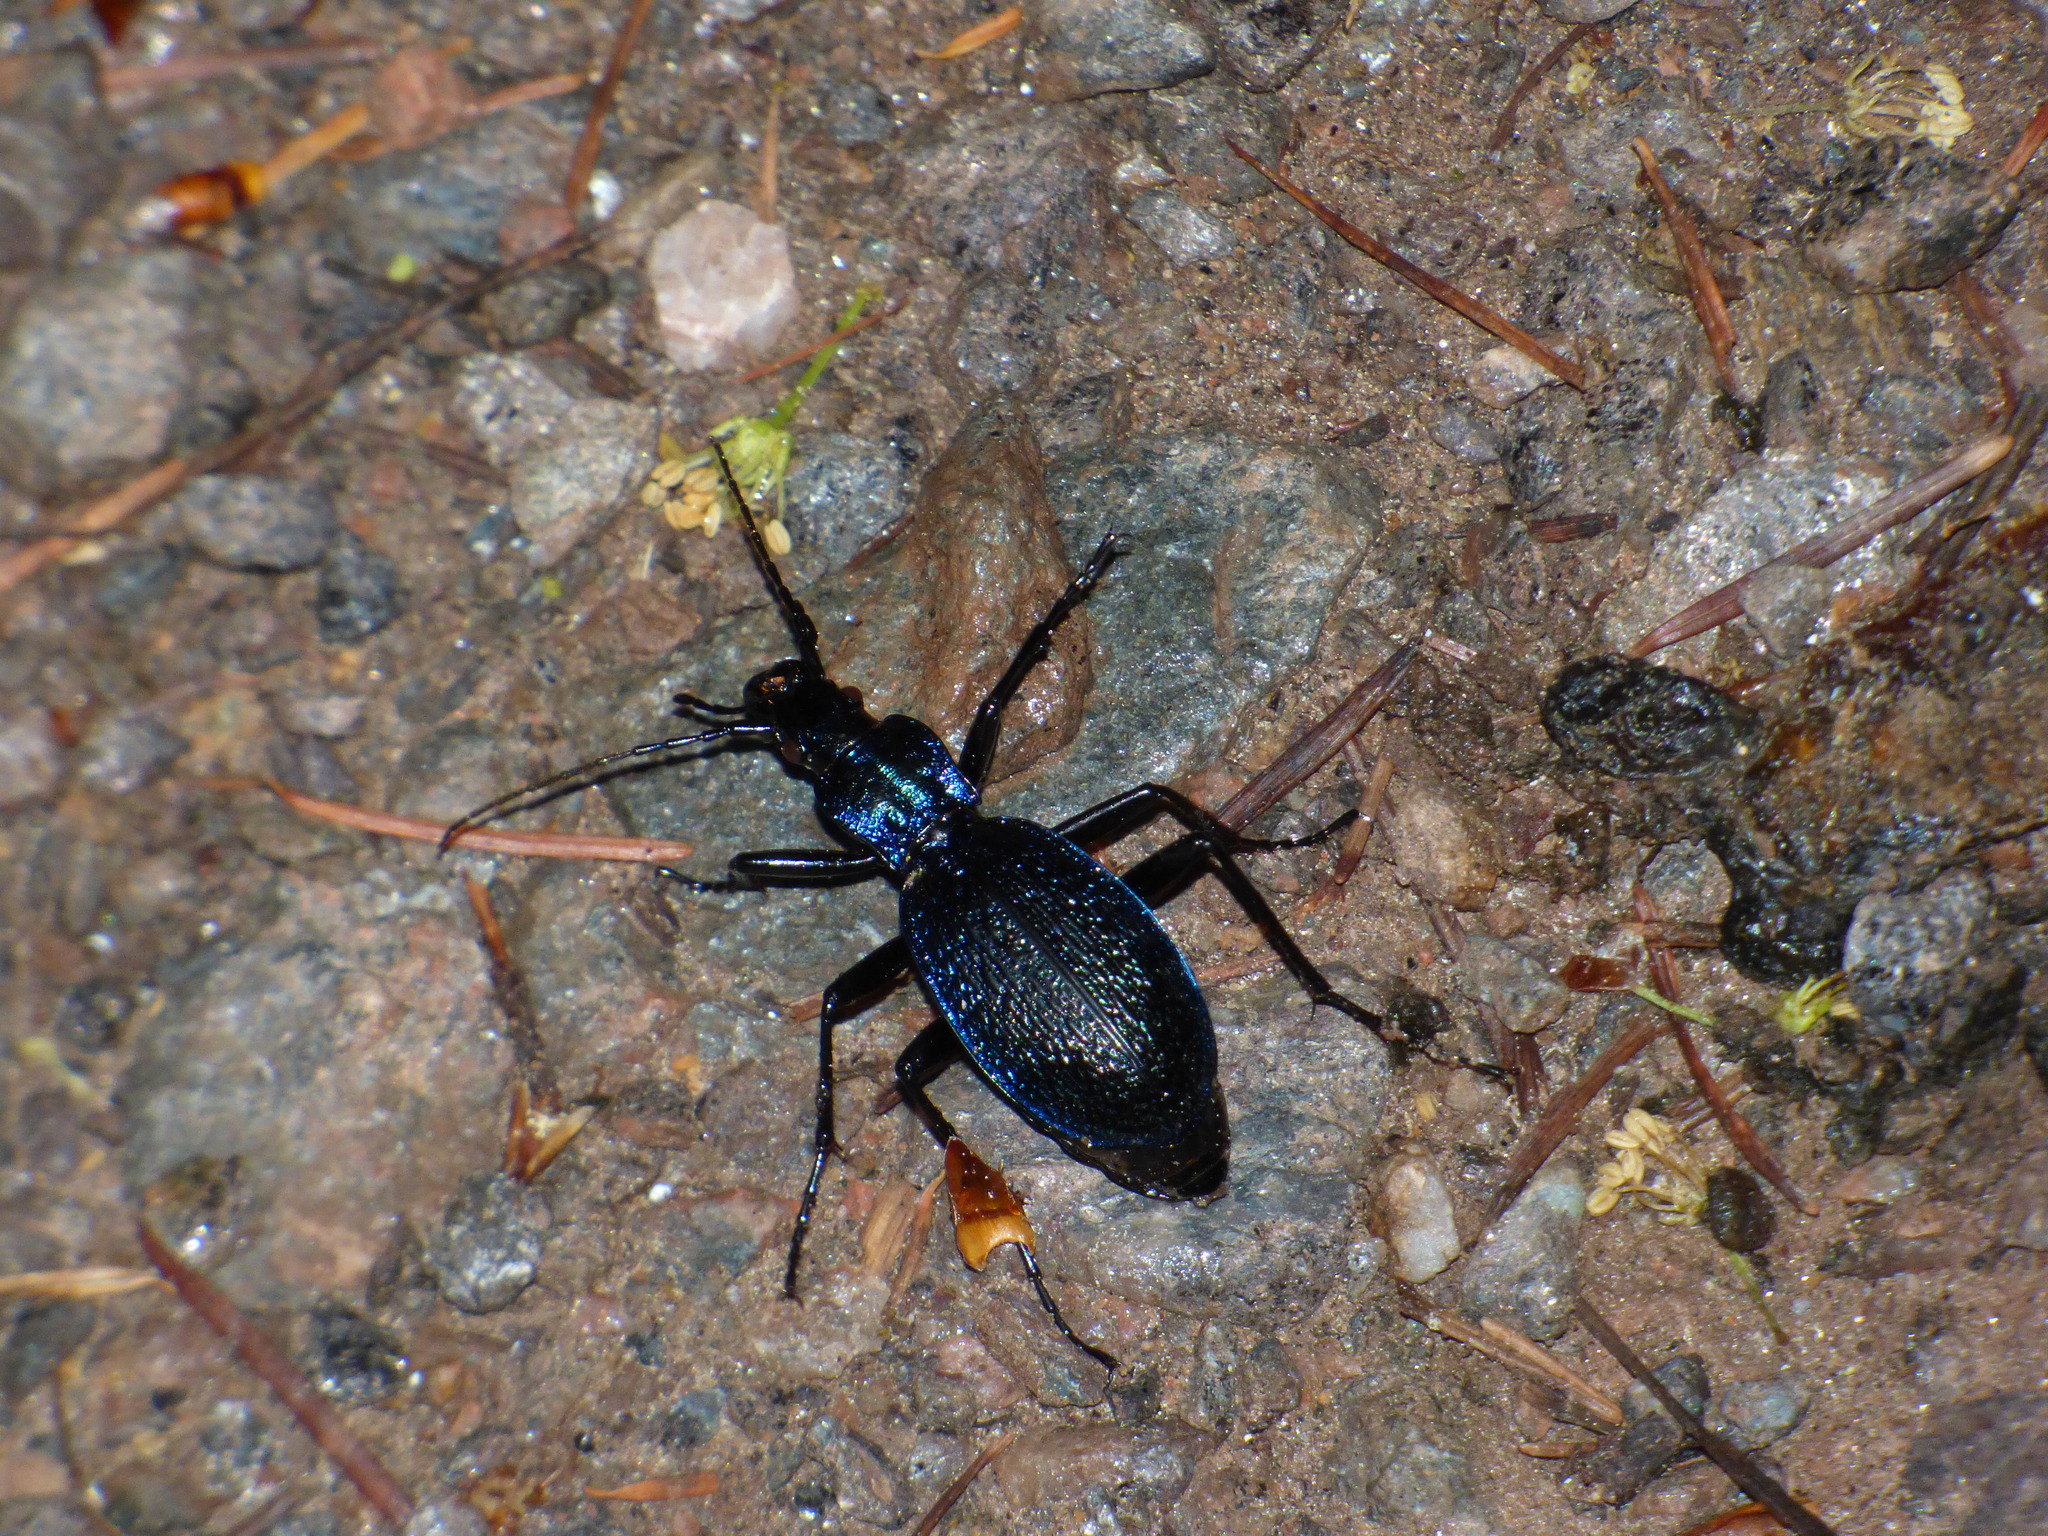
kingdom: Animalia
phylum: Arthropoda
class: Insecta
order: Coleoptera
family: Carabidae
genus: Carabus
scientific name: Carabus intricatus
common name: Blue ground beetle
